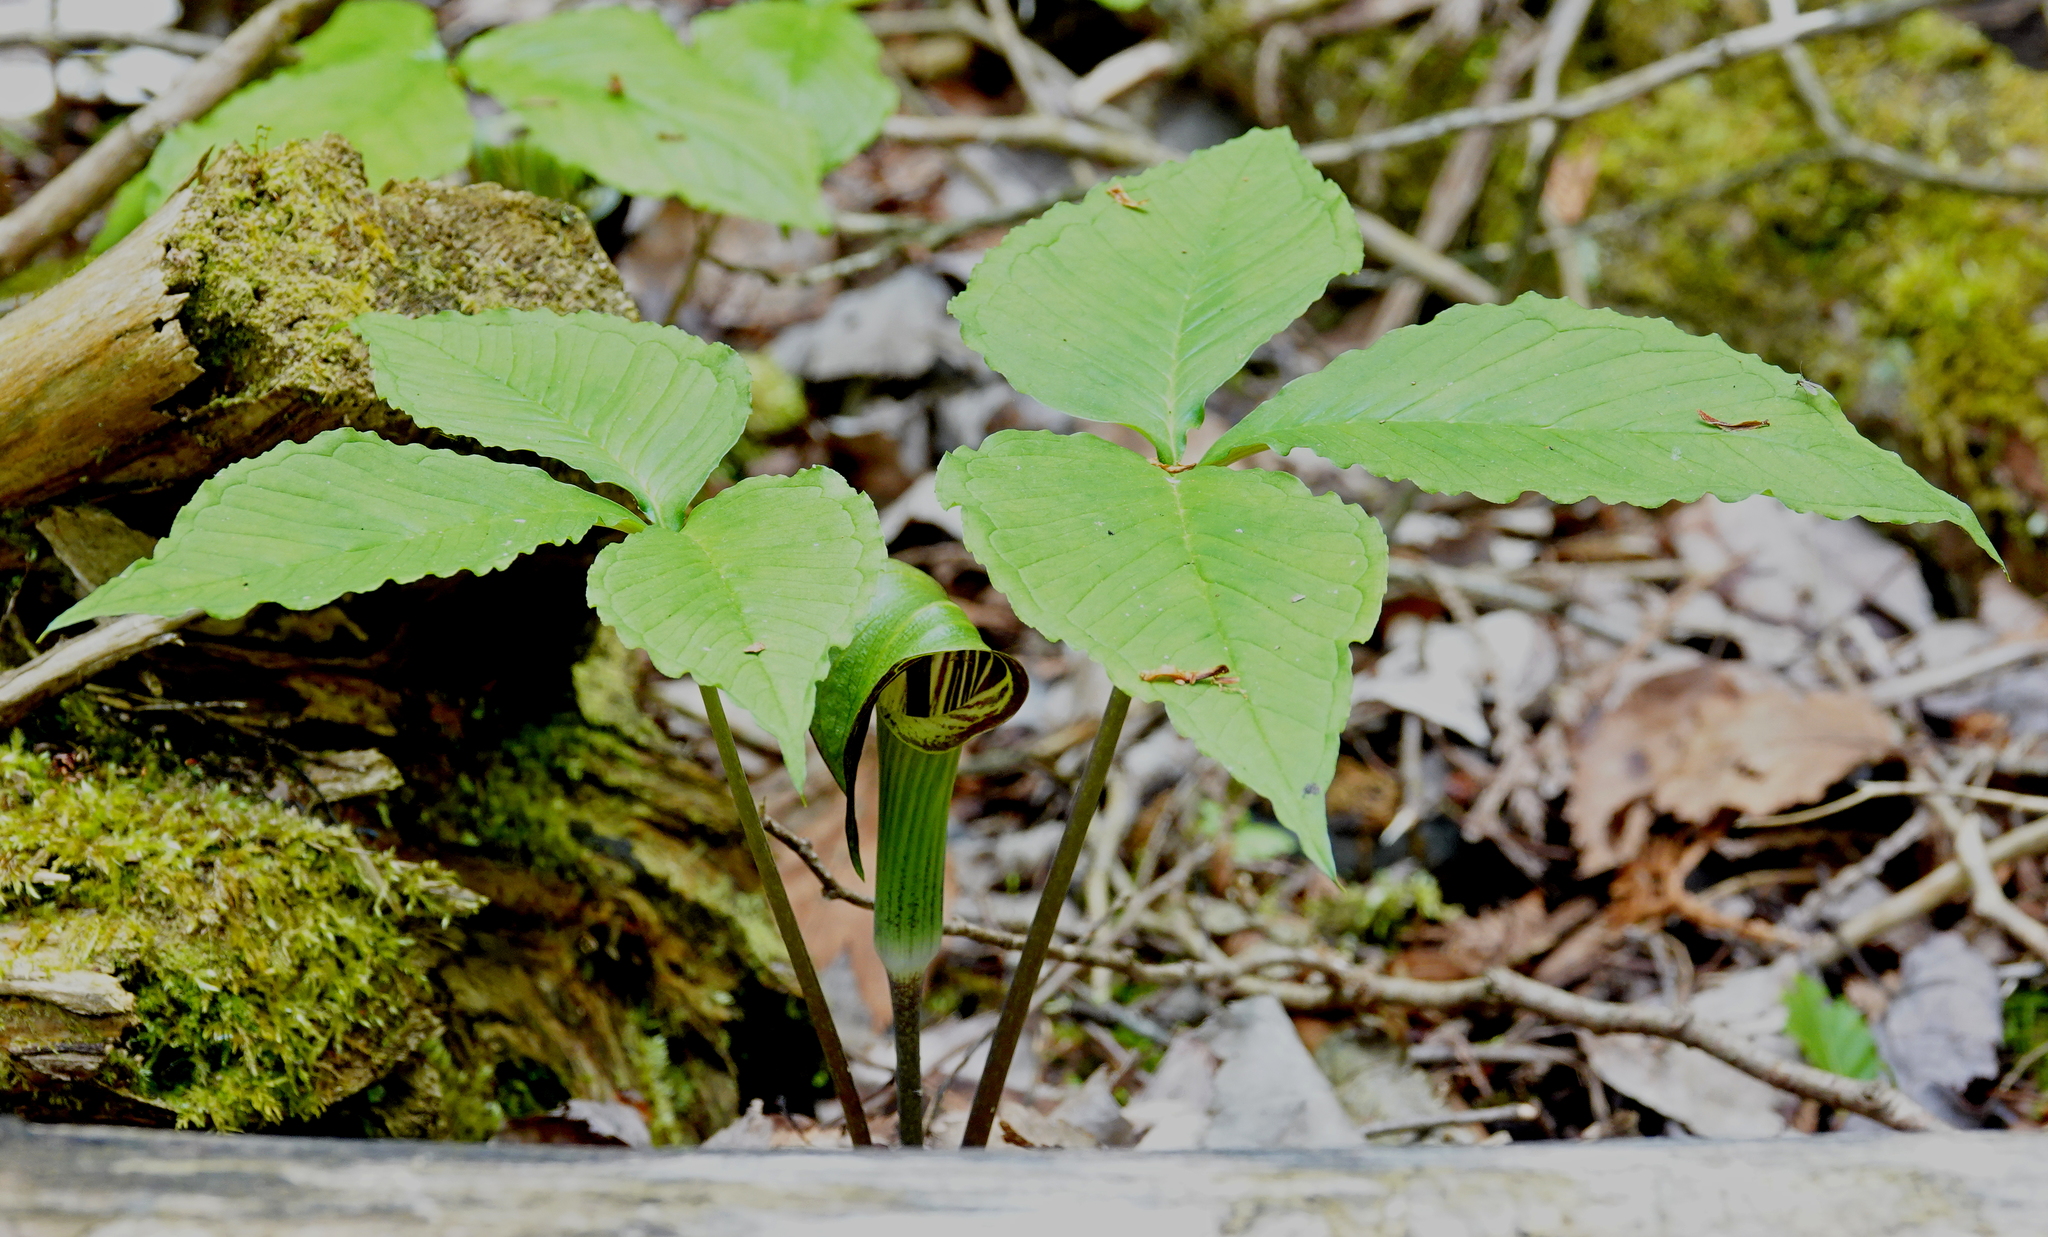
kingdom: Plantae
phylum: Tracheophyta
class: Liliopsida
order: Alismatales
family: Araceae
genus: Arisaema
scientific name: Arisaema triphyllum
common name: Jack-in-the-pulpit
